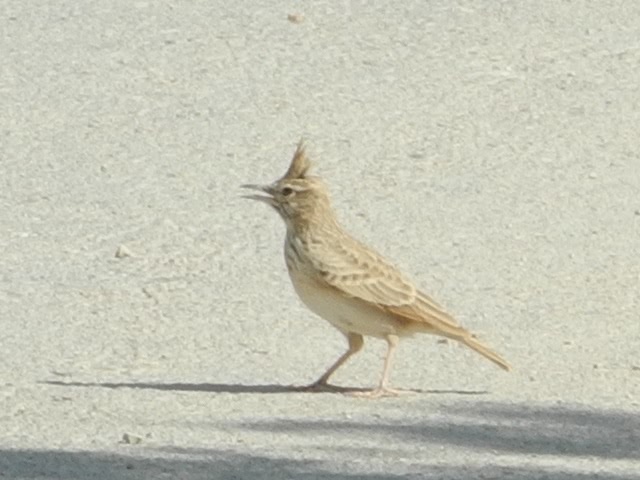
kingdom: Animalia
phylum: Chordata
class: Aves
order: Passeriformes
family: Alaudidae
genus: Galerida
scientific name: Galerida cristata
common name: Crested lark
